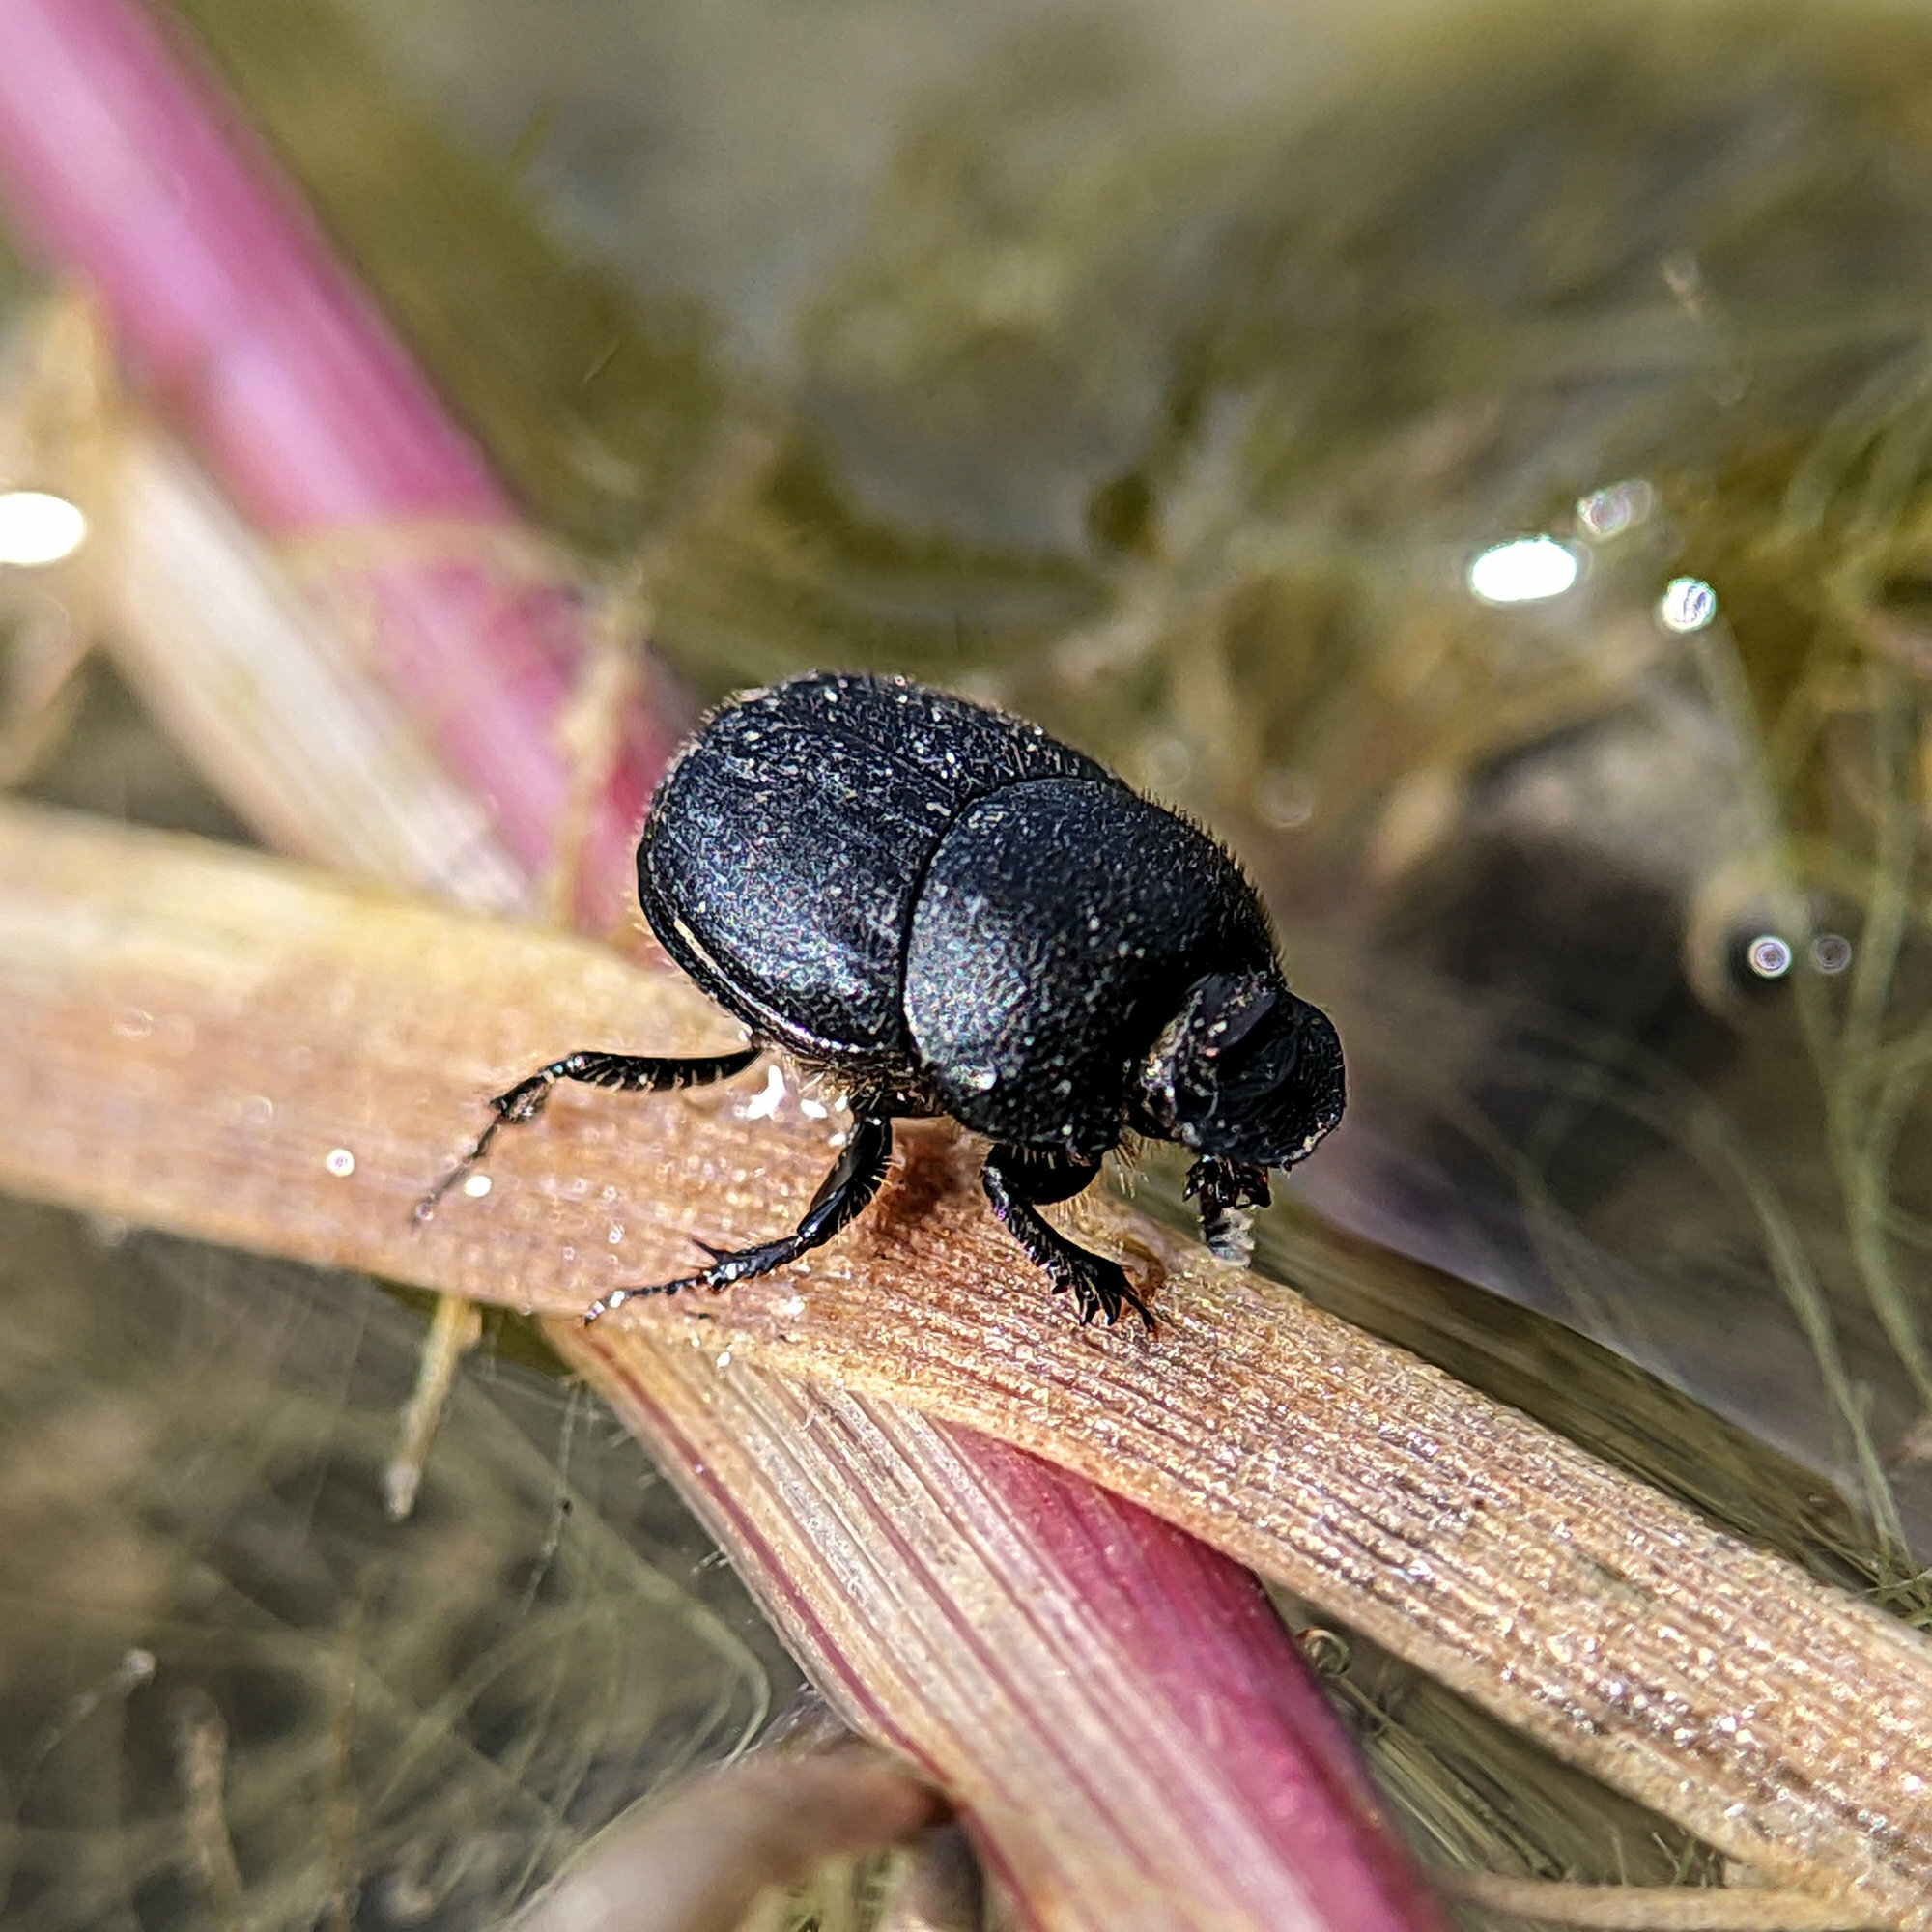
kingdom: Animalia
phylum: Arthropoda
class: Insecta
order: Coleoptera
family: Scarabaeidae
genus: Onthophagus
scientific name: Onthophagus
